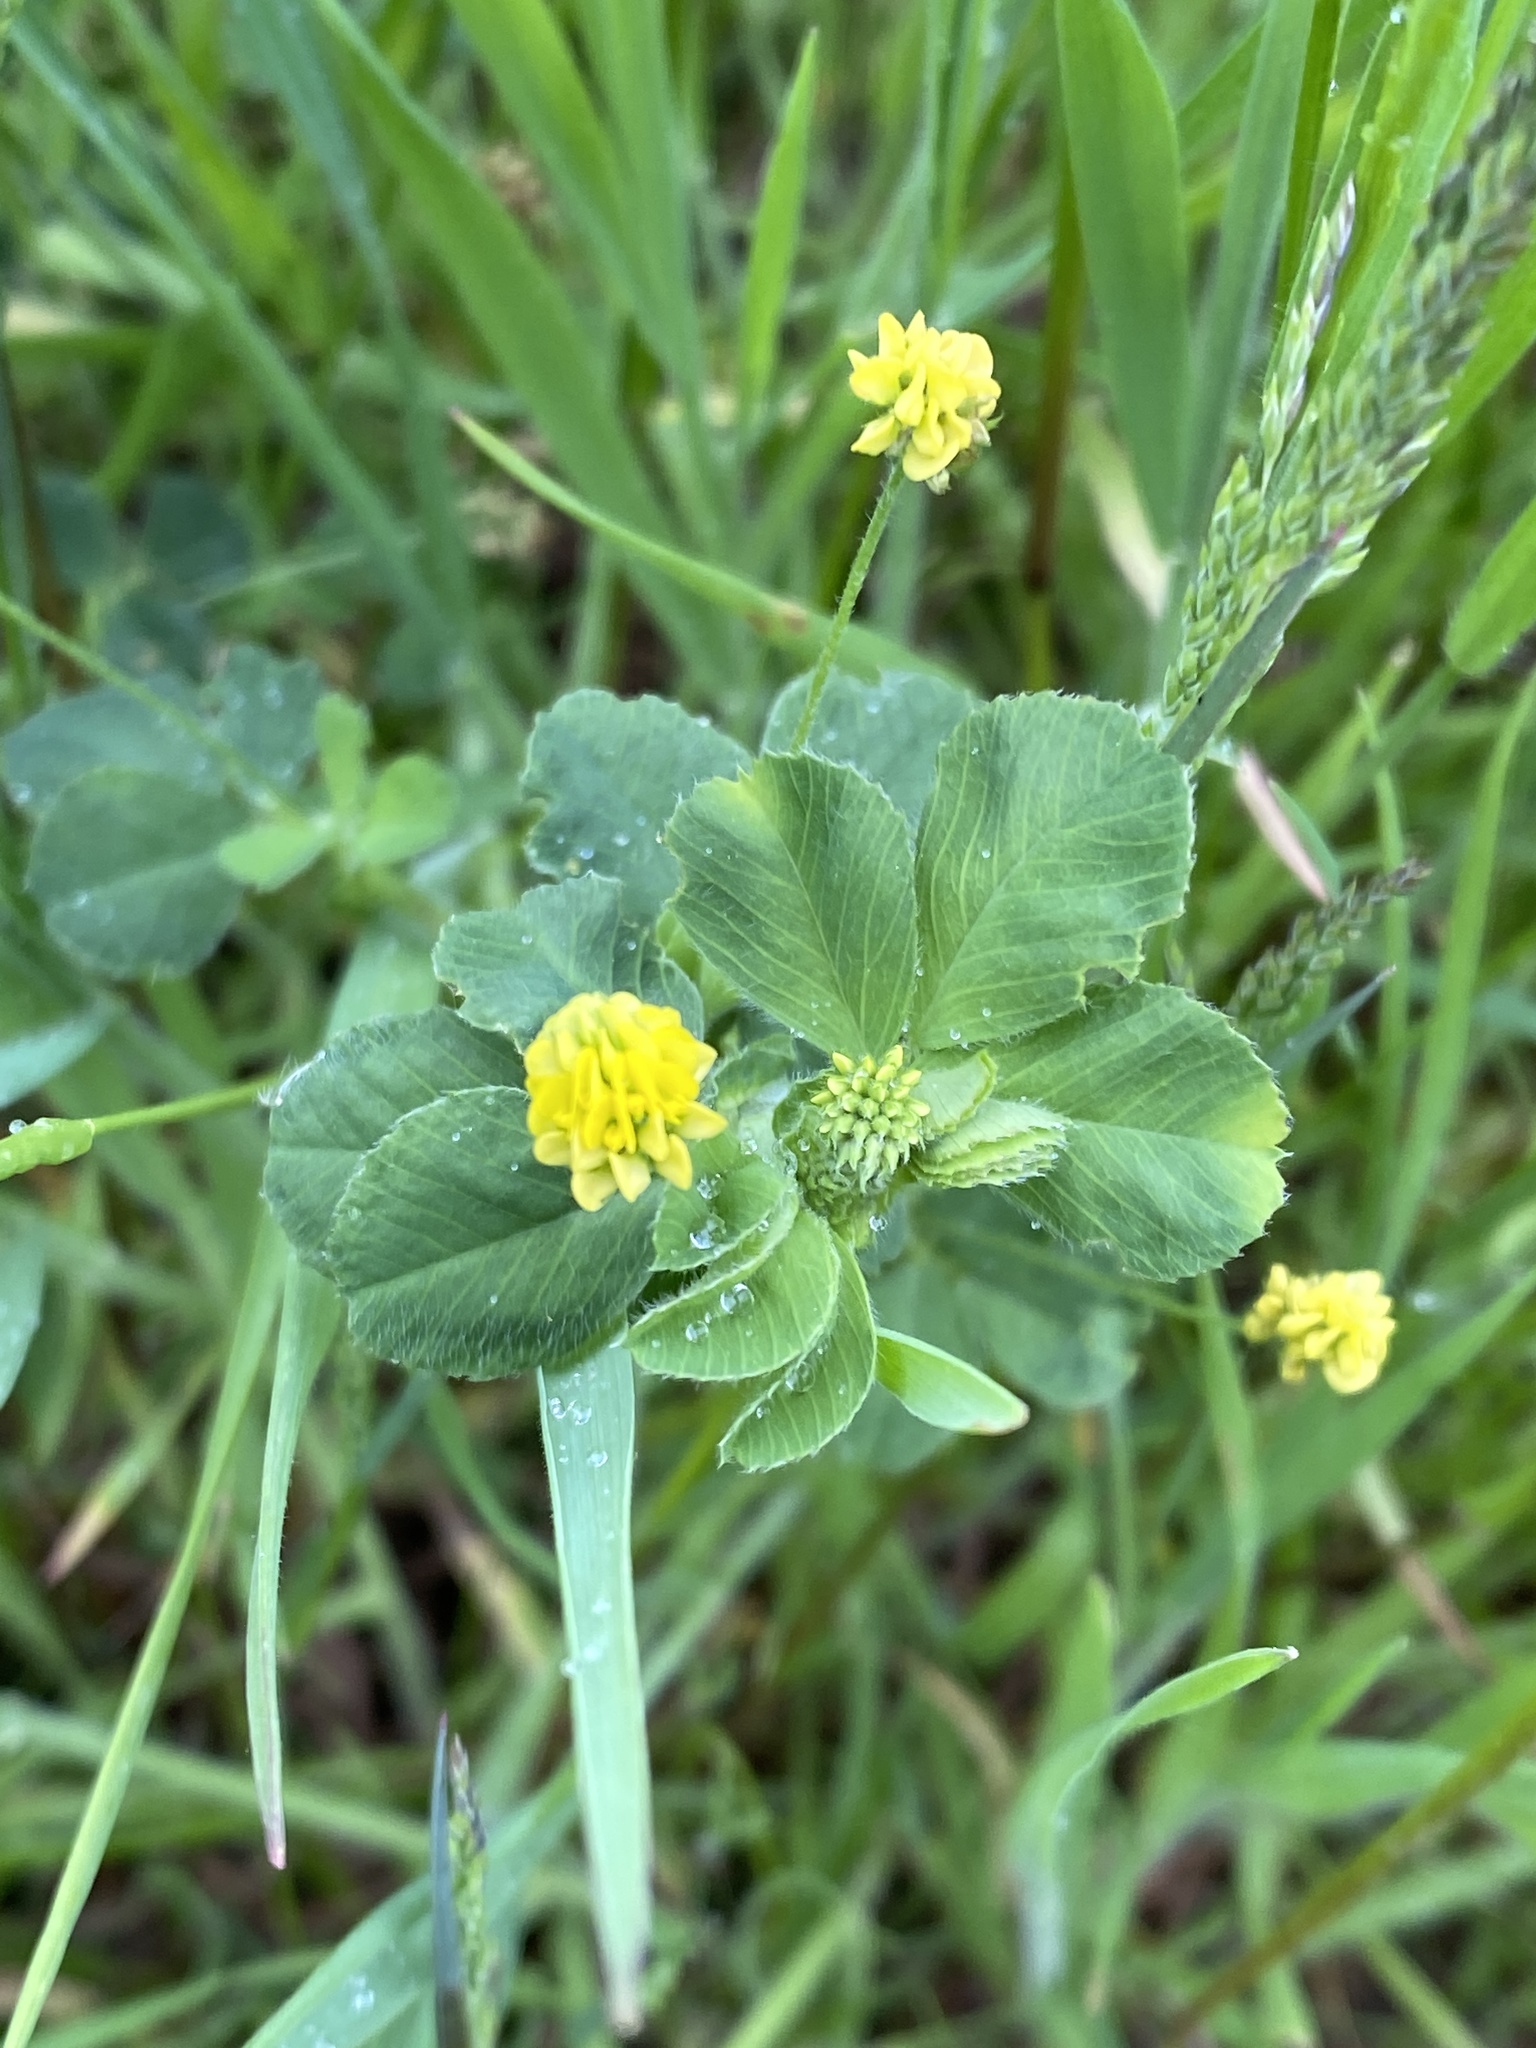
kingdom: Plantae
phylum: Tracheophyta
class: Magnoliopsida
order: Fabales
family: Fabaceae
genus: Medicago
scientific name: Medicago lupulina
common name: Black medick
